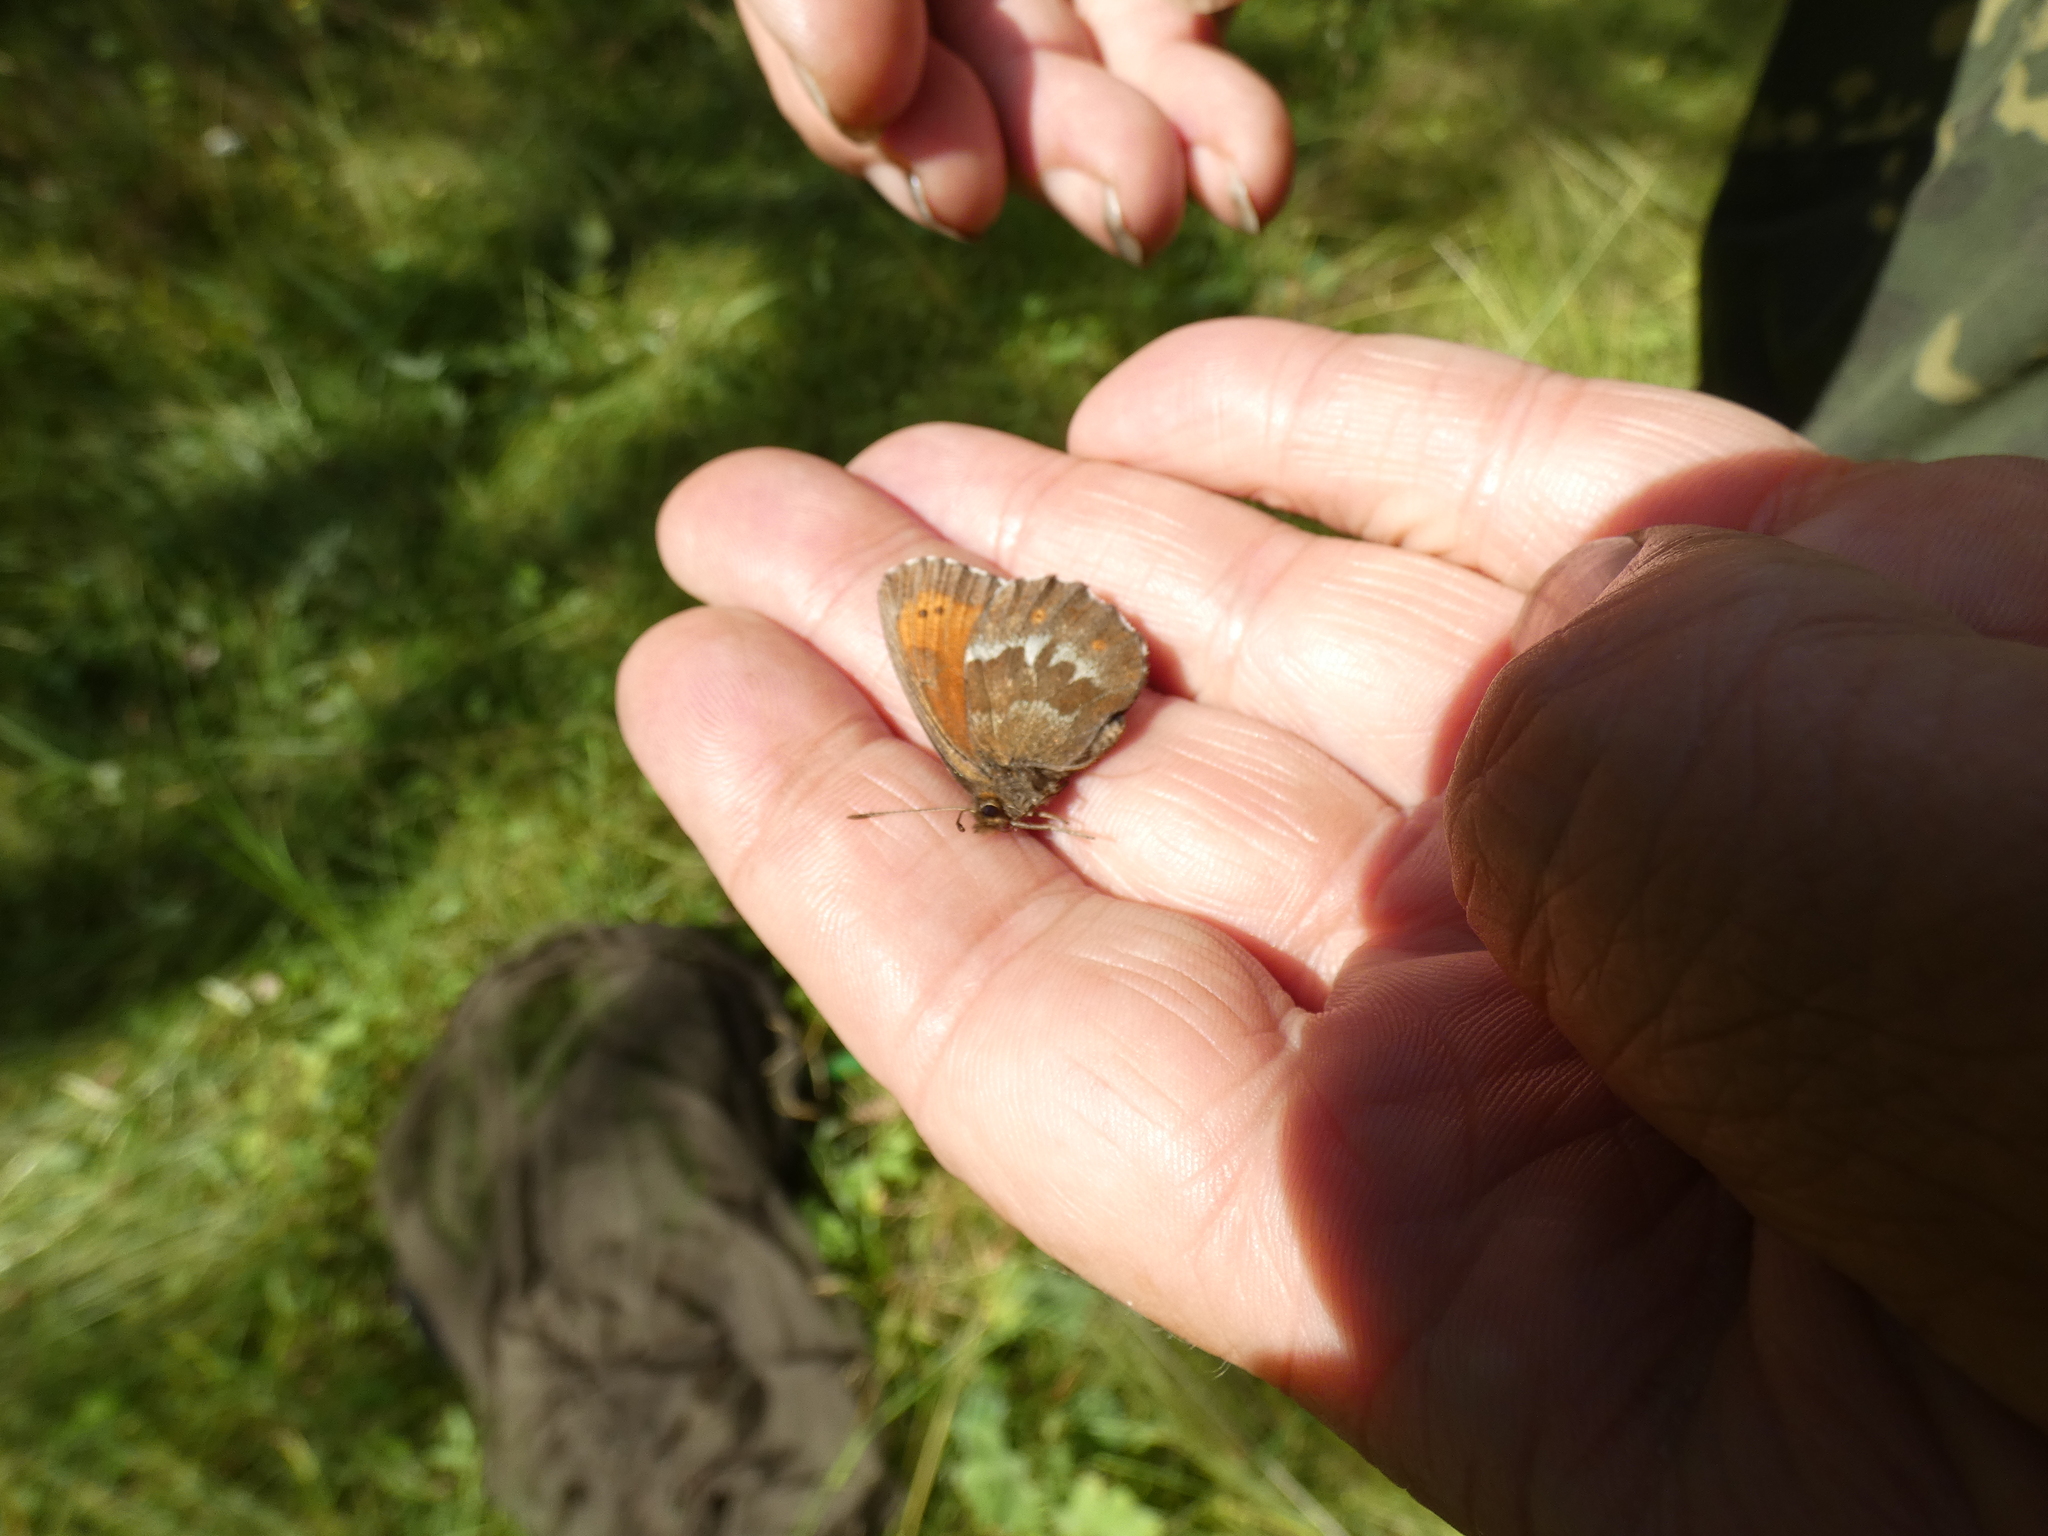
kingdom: Animalia
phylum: Arthropoda
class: Insecta
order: Lepidoptera
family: Nymphalidae
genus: Erebia
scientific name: Erebia euryale
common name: Large ringlet
